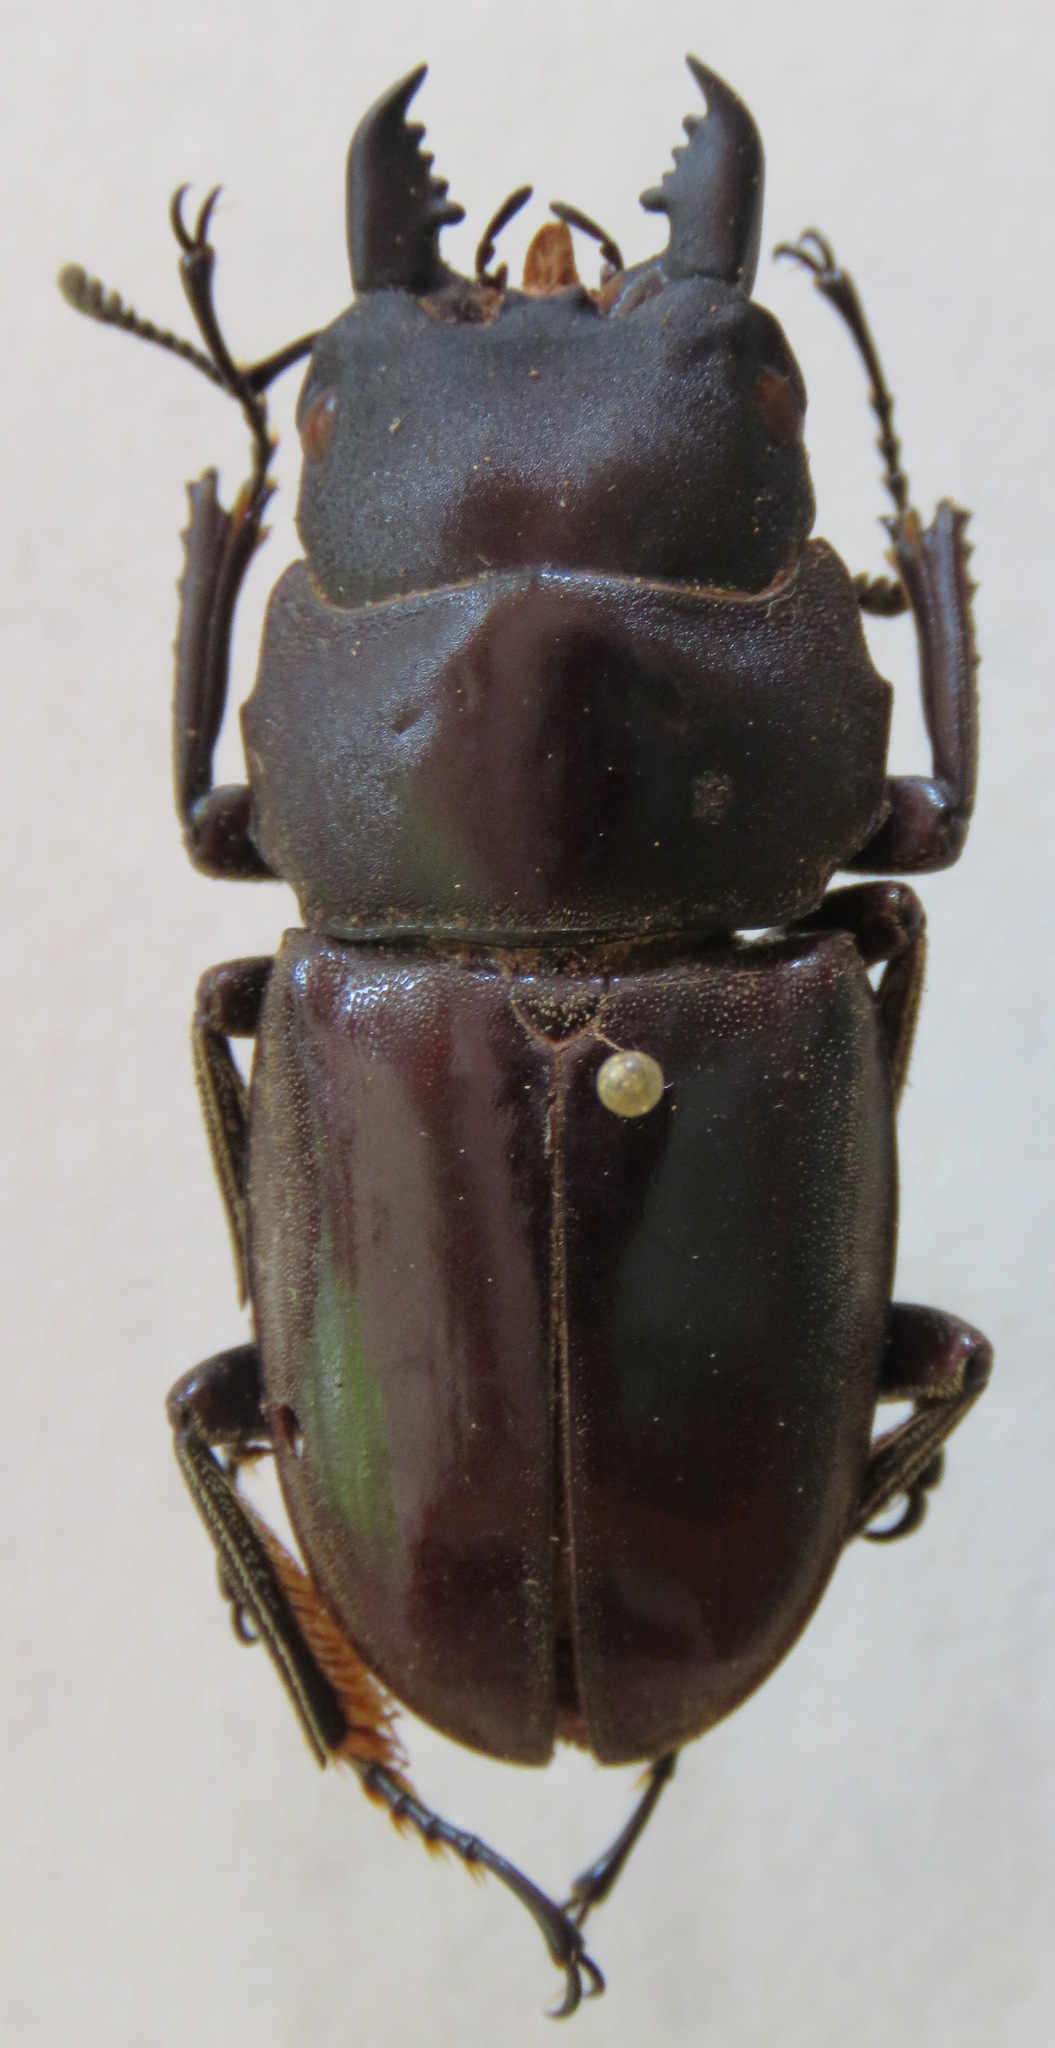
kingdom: Animalia
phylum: Arthropoda
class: Insecta
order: Coleoptera
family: Lucanidae
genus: Dorcus
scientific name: Dorcus townesi
